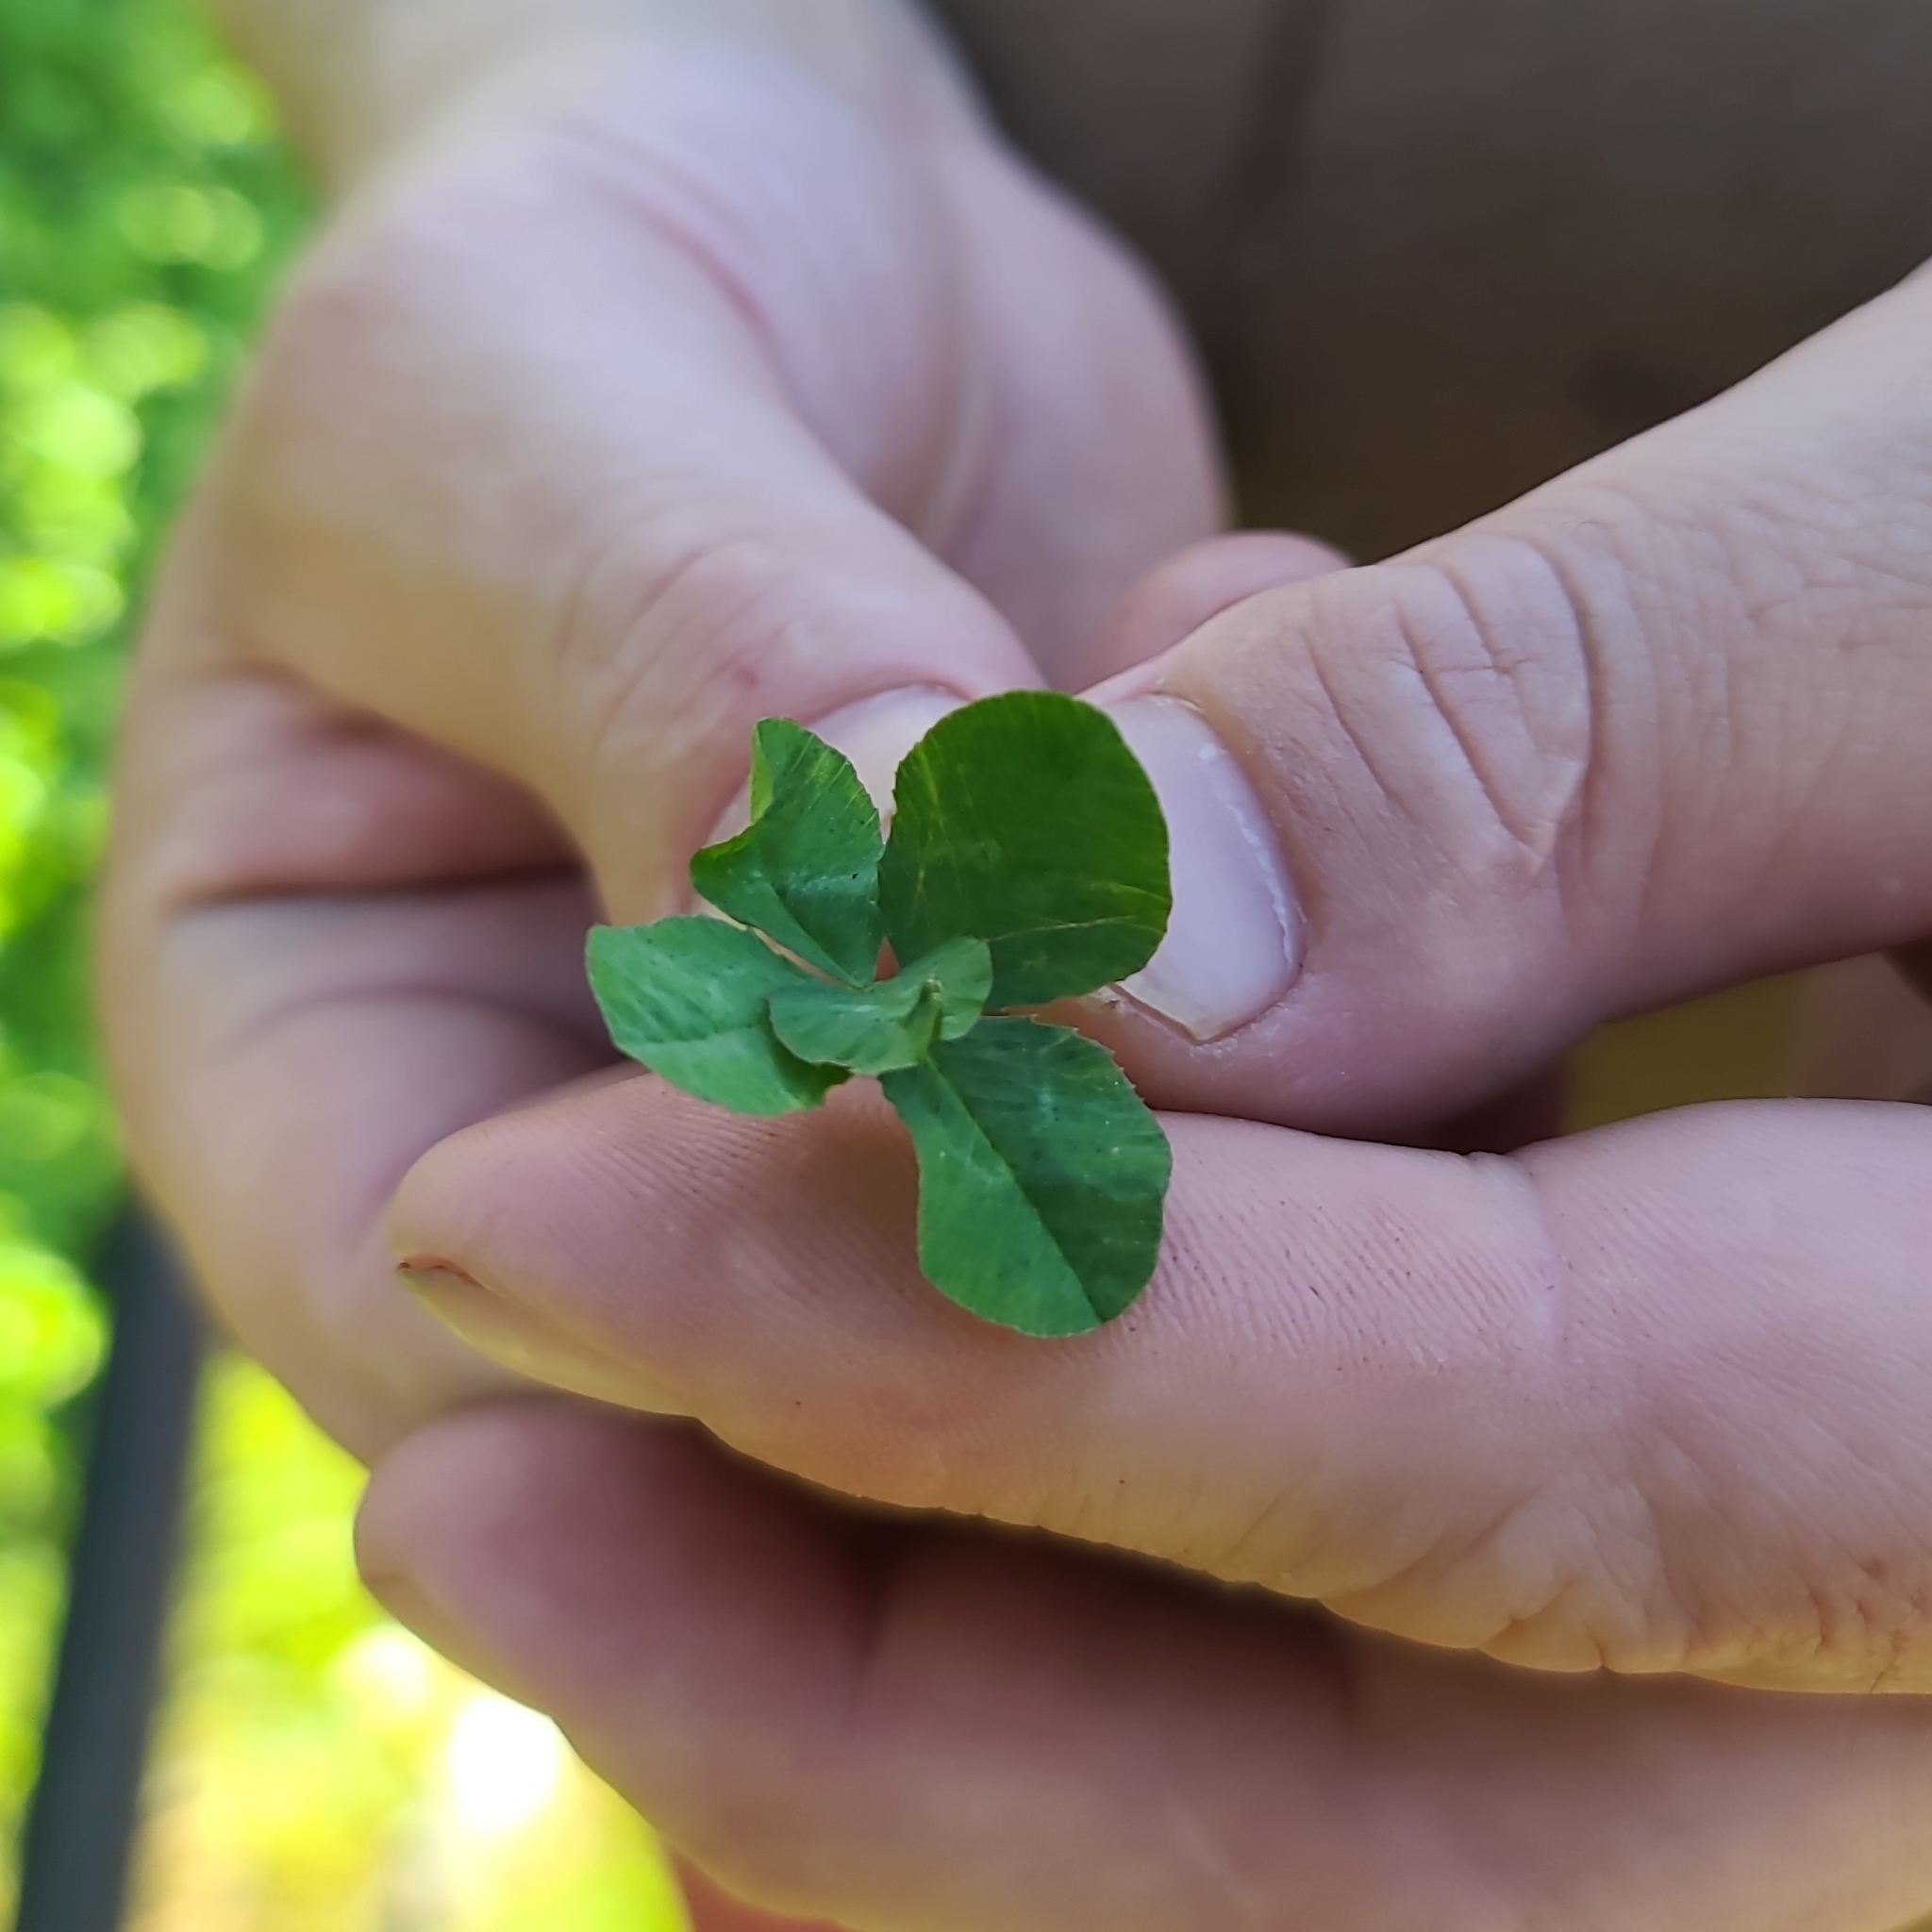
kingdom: Plantae
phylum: Tracheophyta
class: Magnoliopsida
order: Fabales
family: Fabaceae
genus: Trifolium
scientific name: Trifolium repens
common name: White clover
